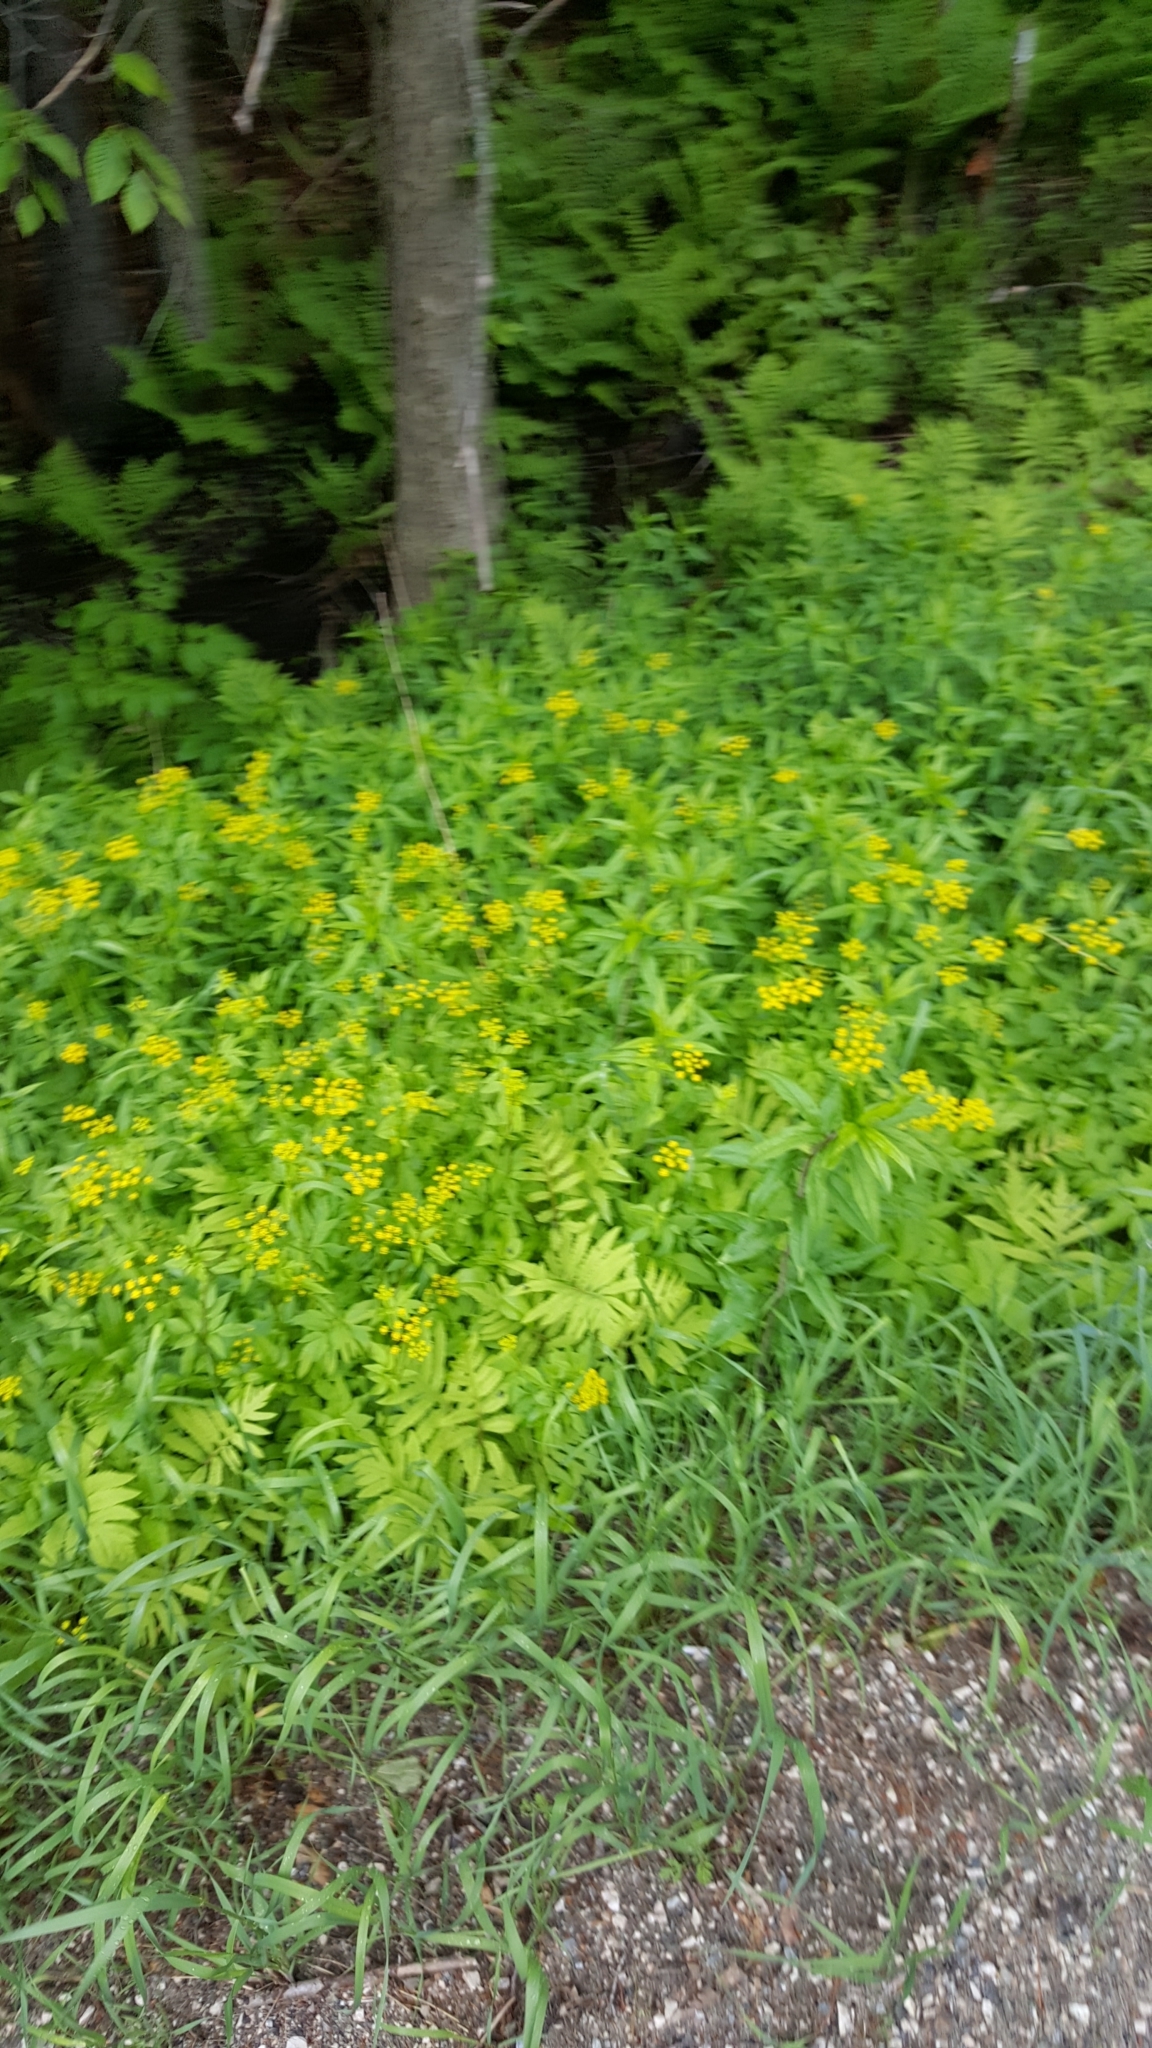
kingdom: Plantae
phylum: Tracheophyta
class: Magnoliopsida
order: Apiales
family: Apiaceae
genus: Zizia
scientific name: Zizia aurea
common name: Golden alexanders
